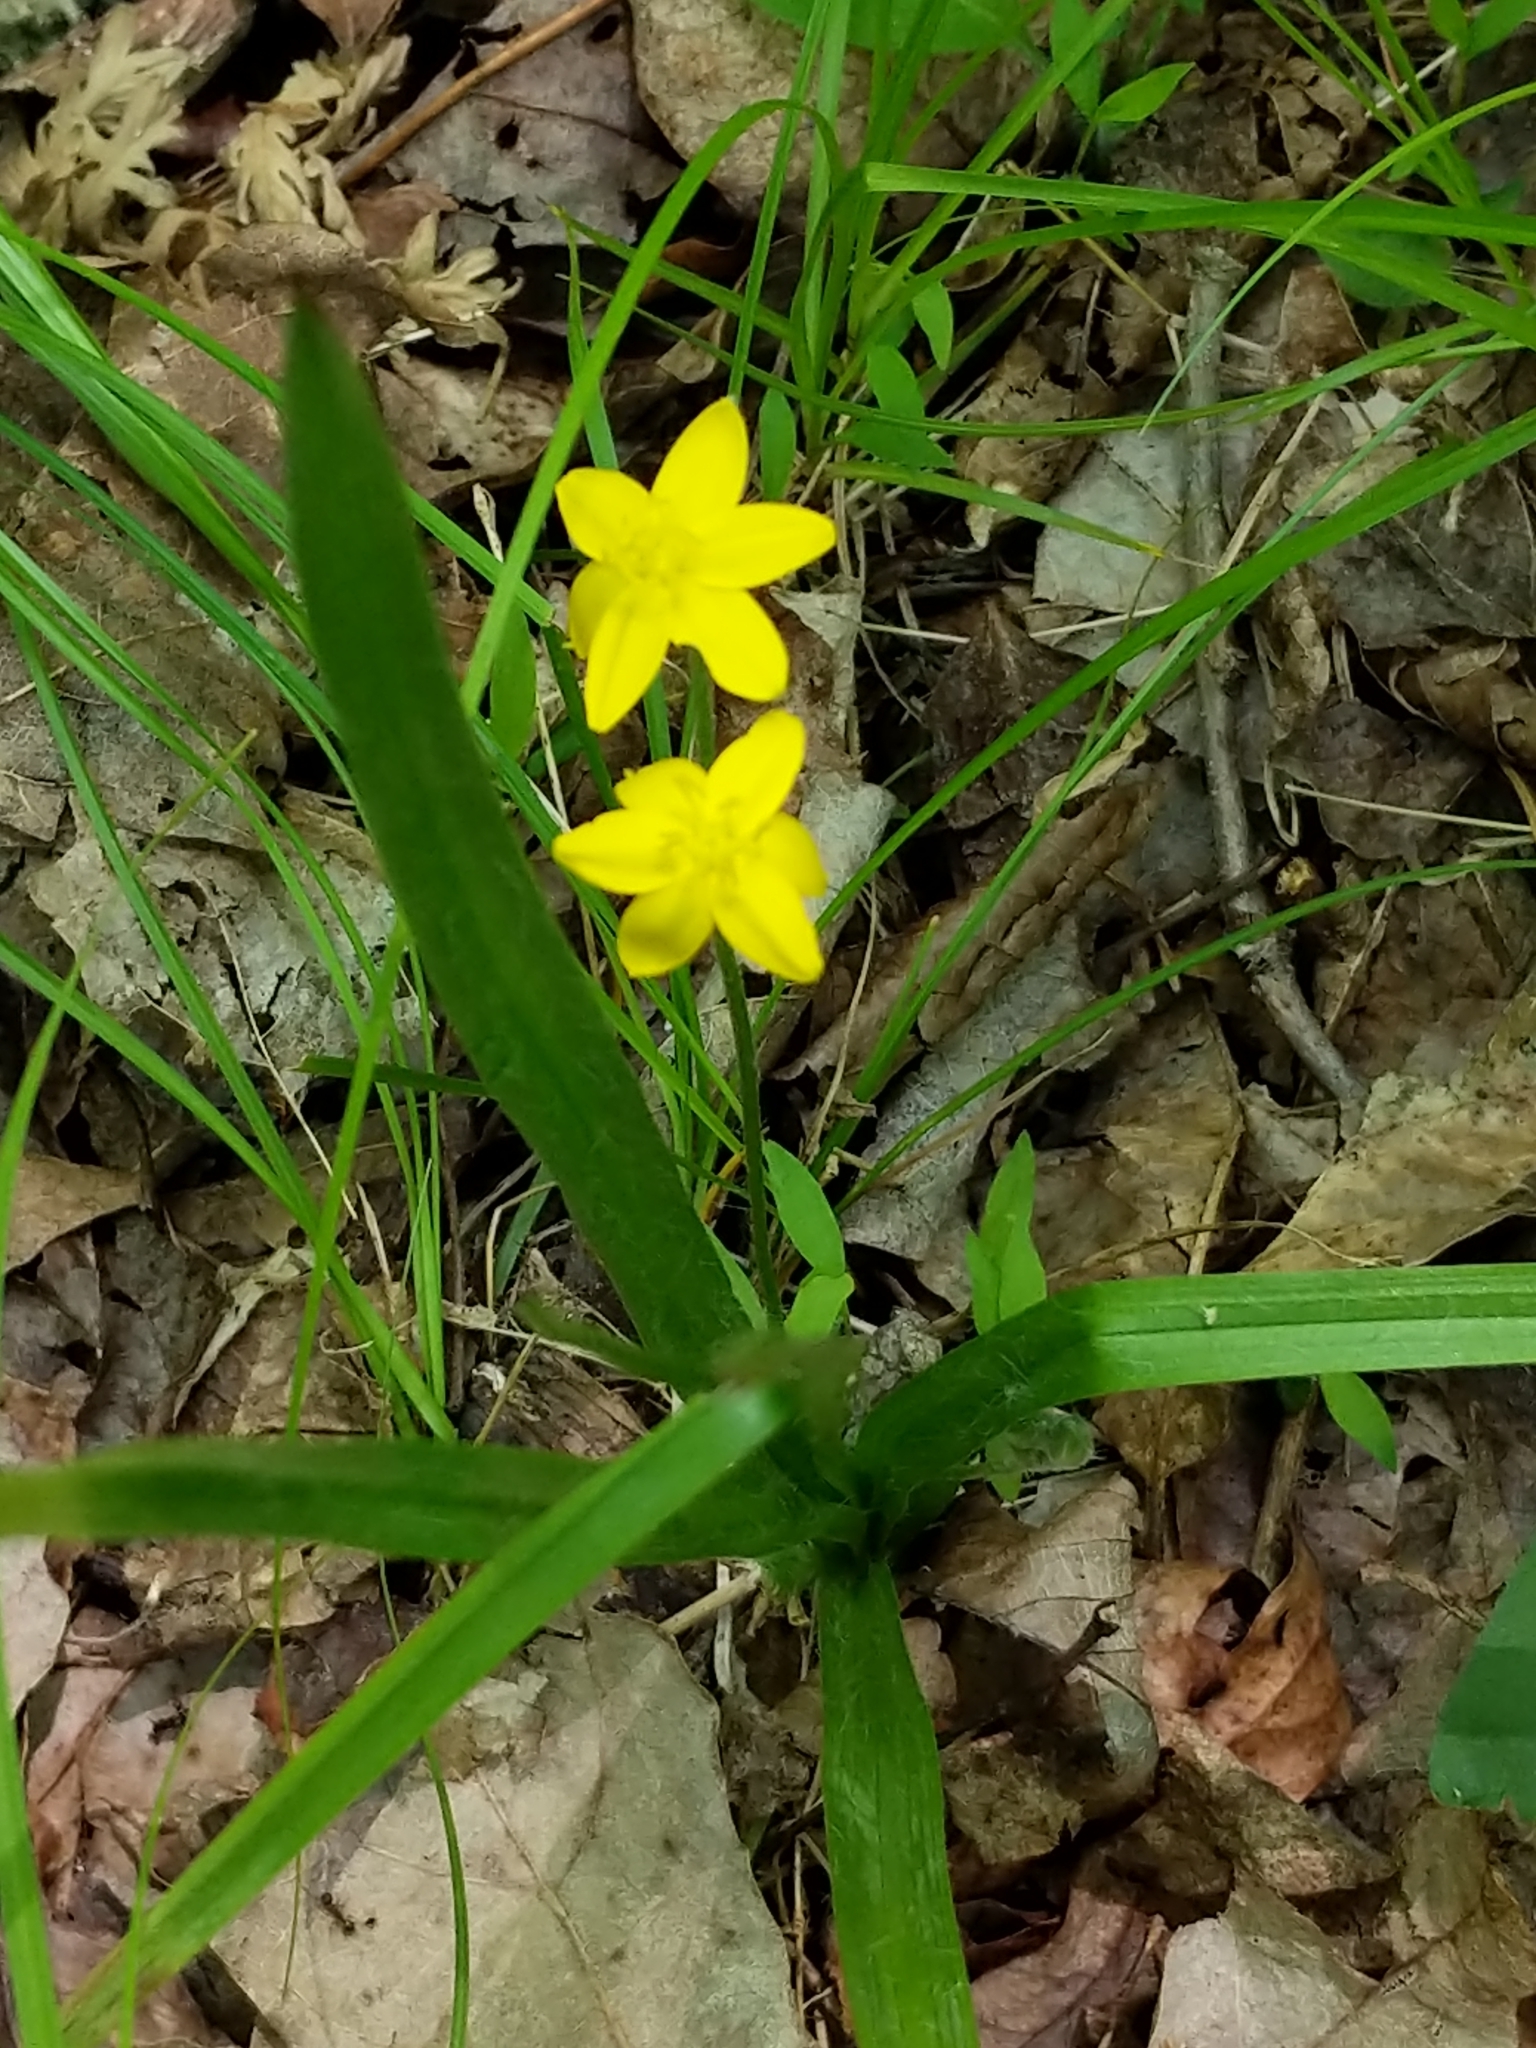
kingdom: Plantae
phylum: Tracheophyta
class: Liliopsida
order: Asparagales
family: Hypoxidaceae
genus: Hypoxis
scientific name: Hypoxis hirsuta
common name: Common goldstar
